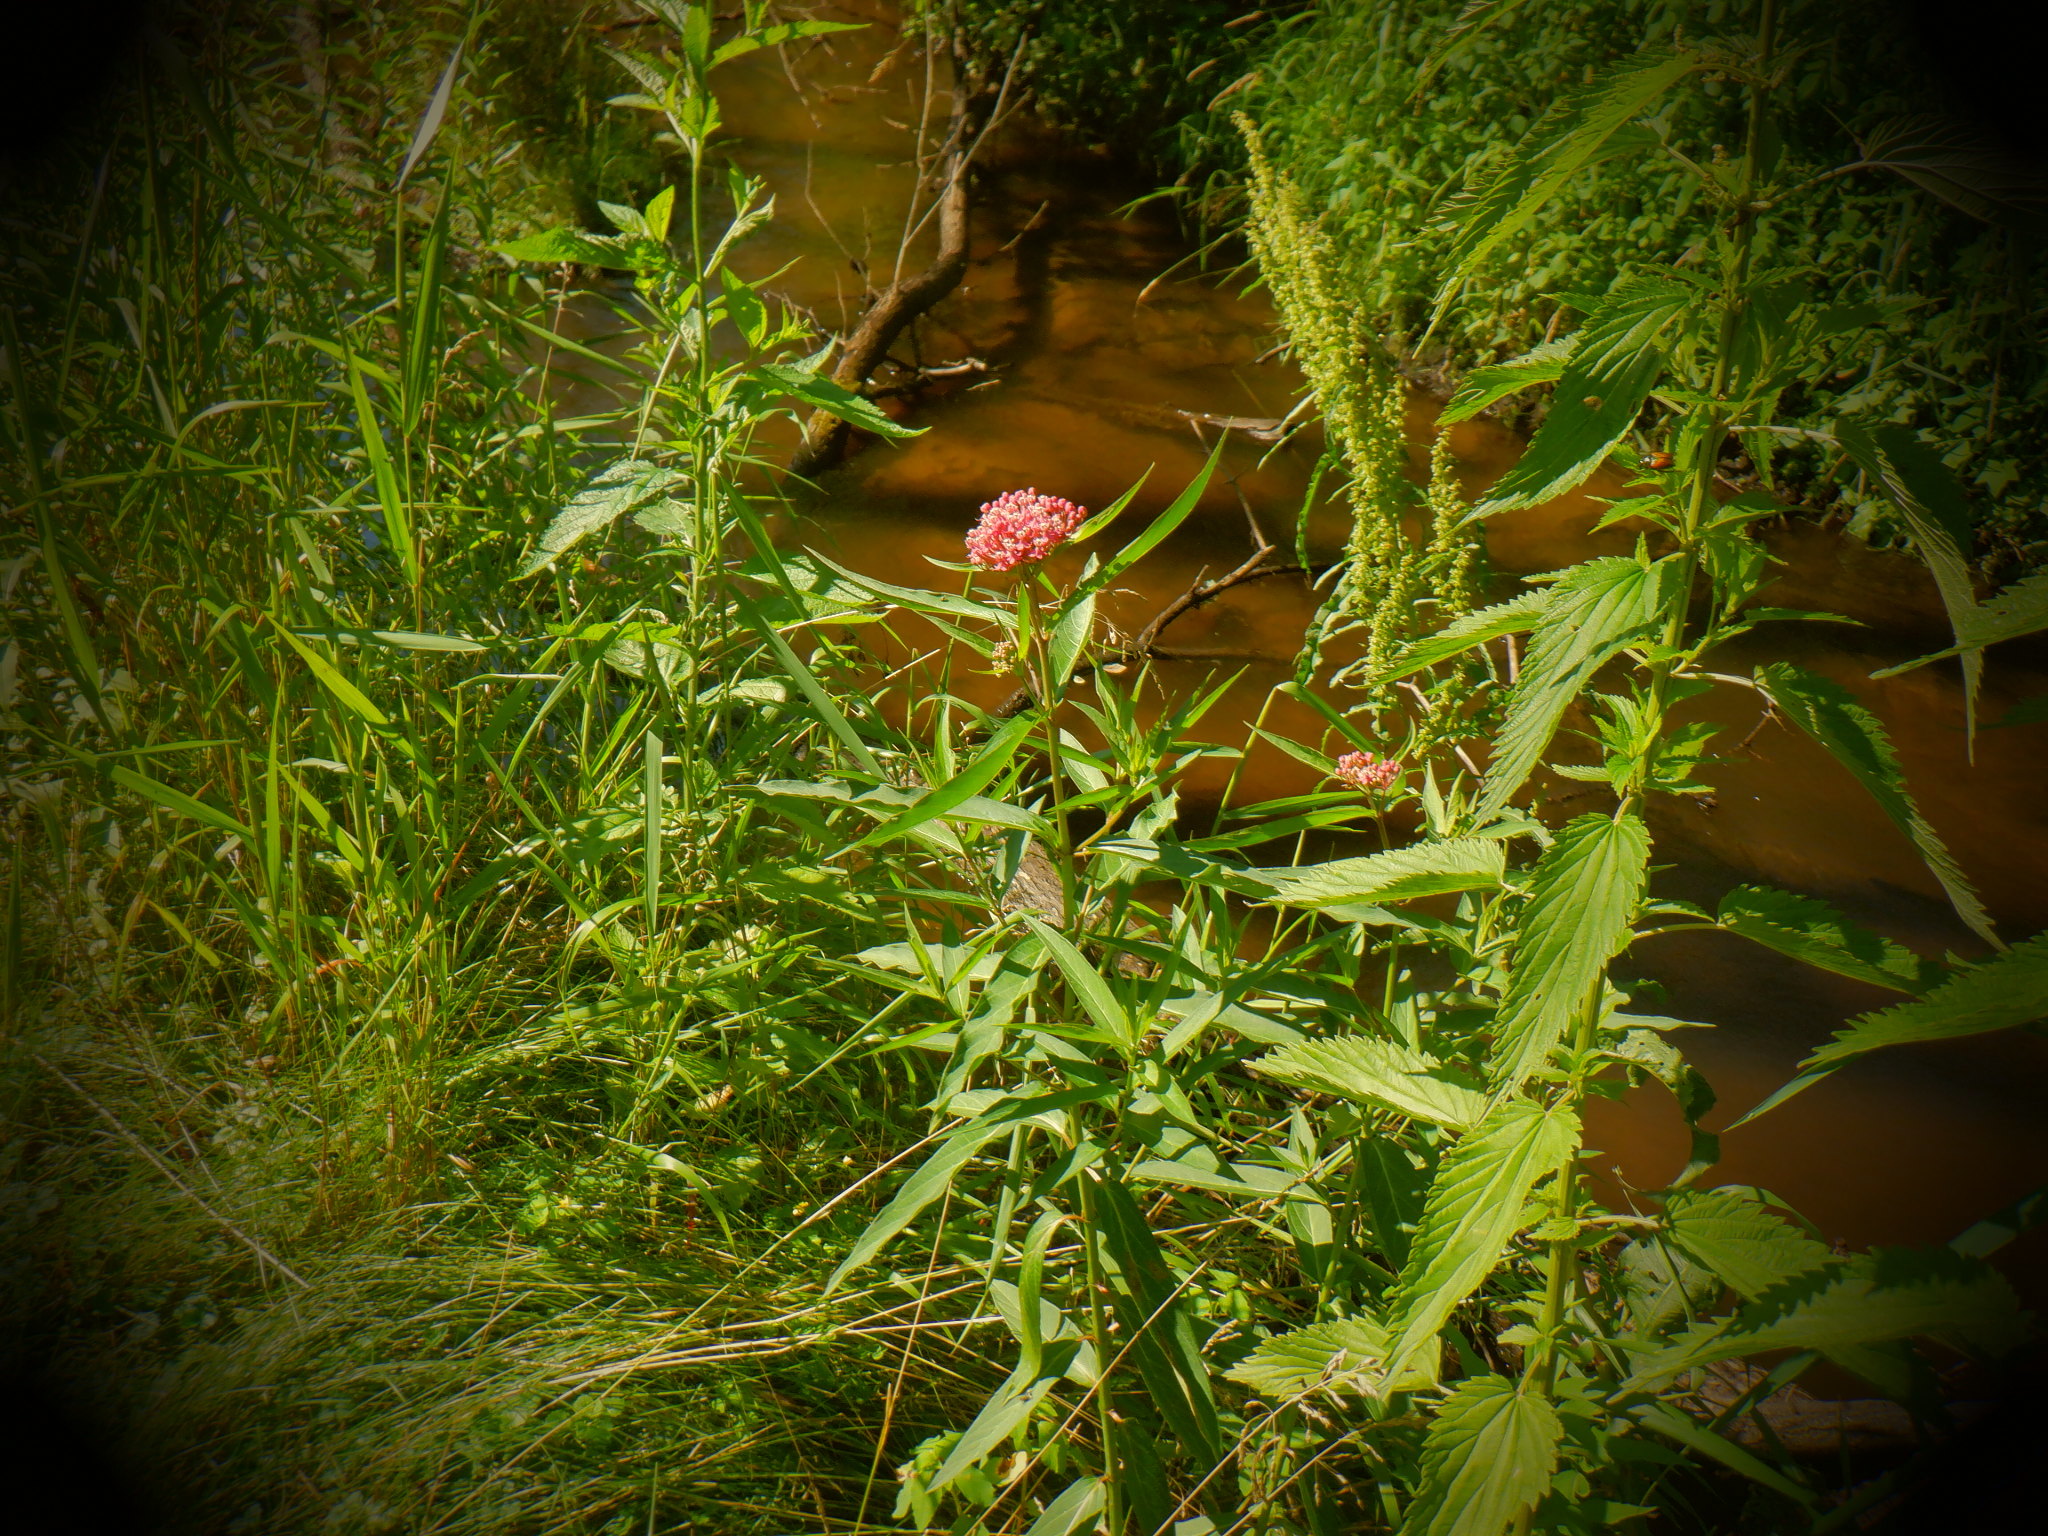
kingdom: Plantae
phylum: Tracheophyta
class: Magnoliopsida
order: Gentianales
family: Apocynaceae
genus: Asclepias
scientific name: Asclepias incarnata
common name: Swamp milkweed
